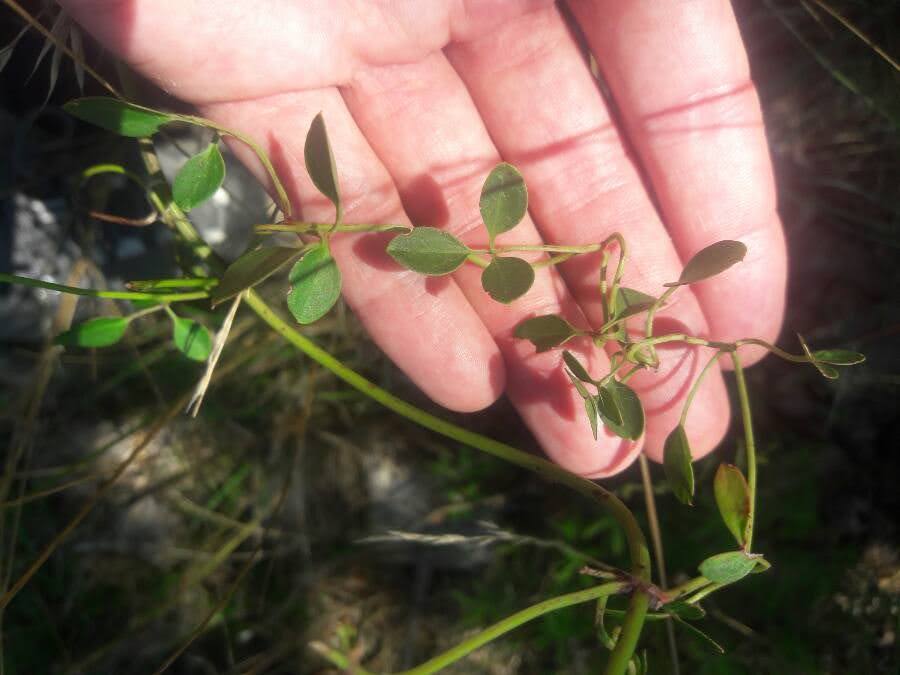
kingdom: Plantae
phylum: Tracheophyta
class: Magnoliopsida
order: Ranunculales
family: Ranunculaceae
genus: Clematis
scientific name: Clematis flammula
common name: Virgin's-bower
